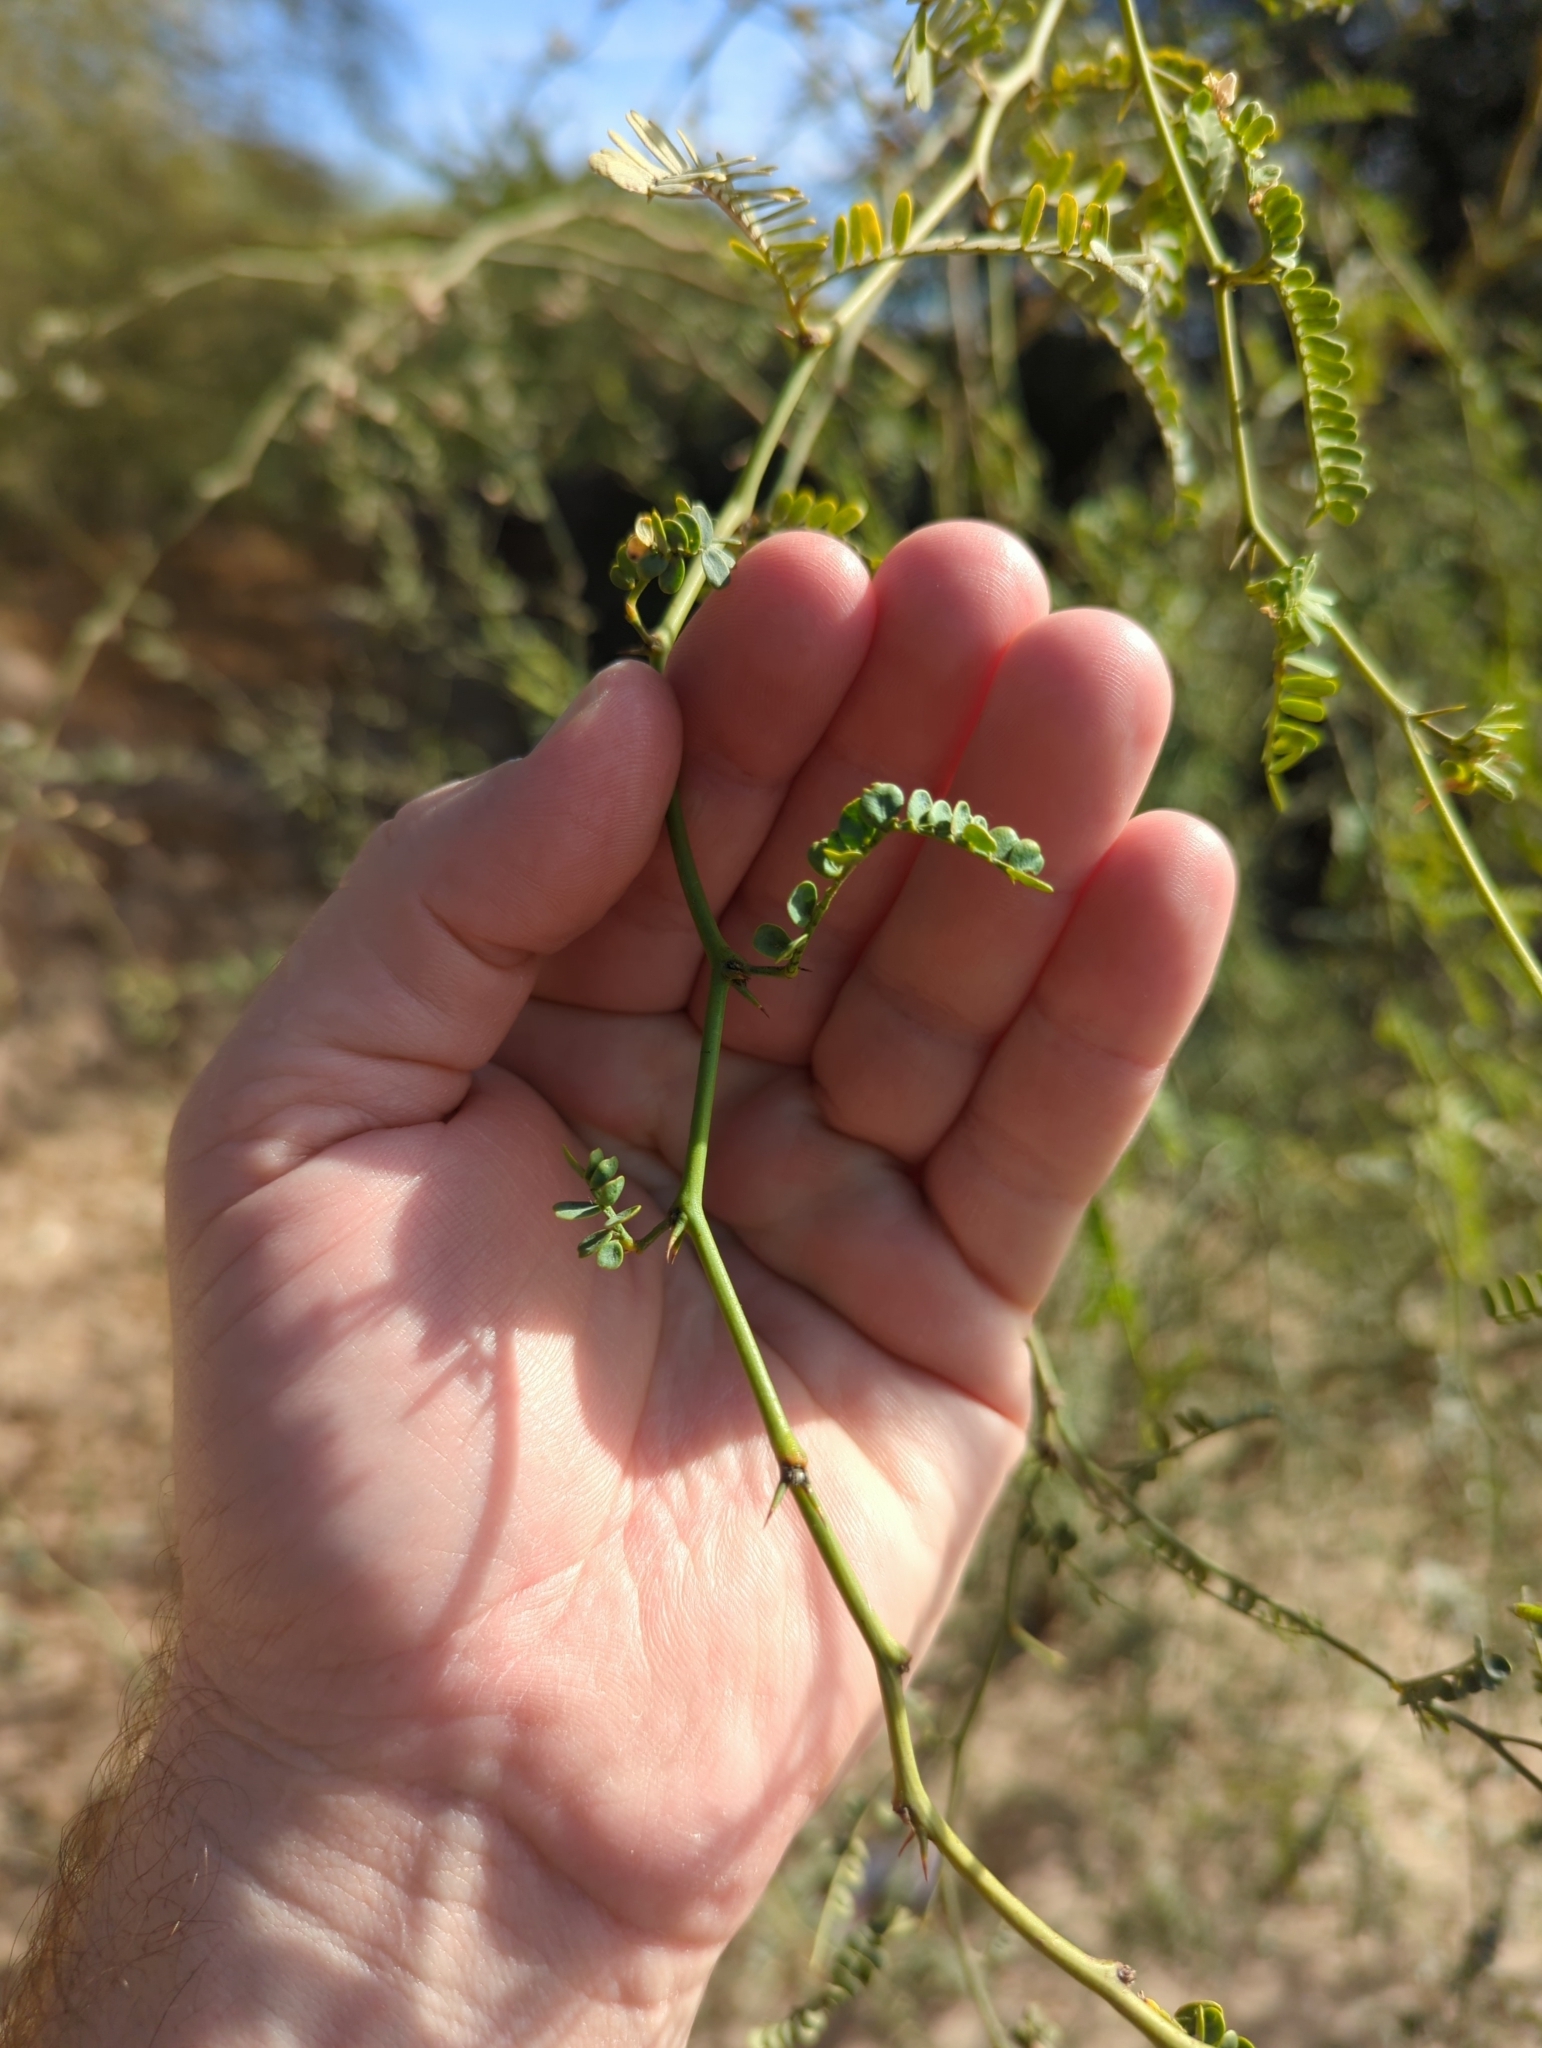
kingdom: Plantae
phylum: Tracheophyta
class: Magnoliopsida
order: Fabales
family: Fabaceae
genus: Prosopis
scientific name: Prosopis articulata
